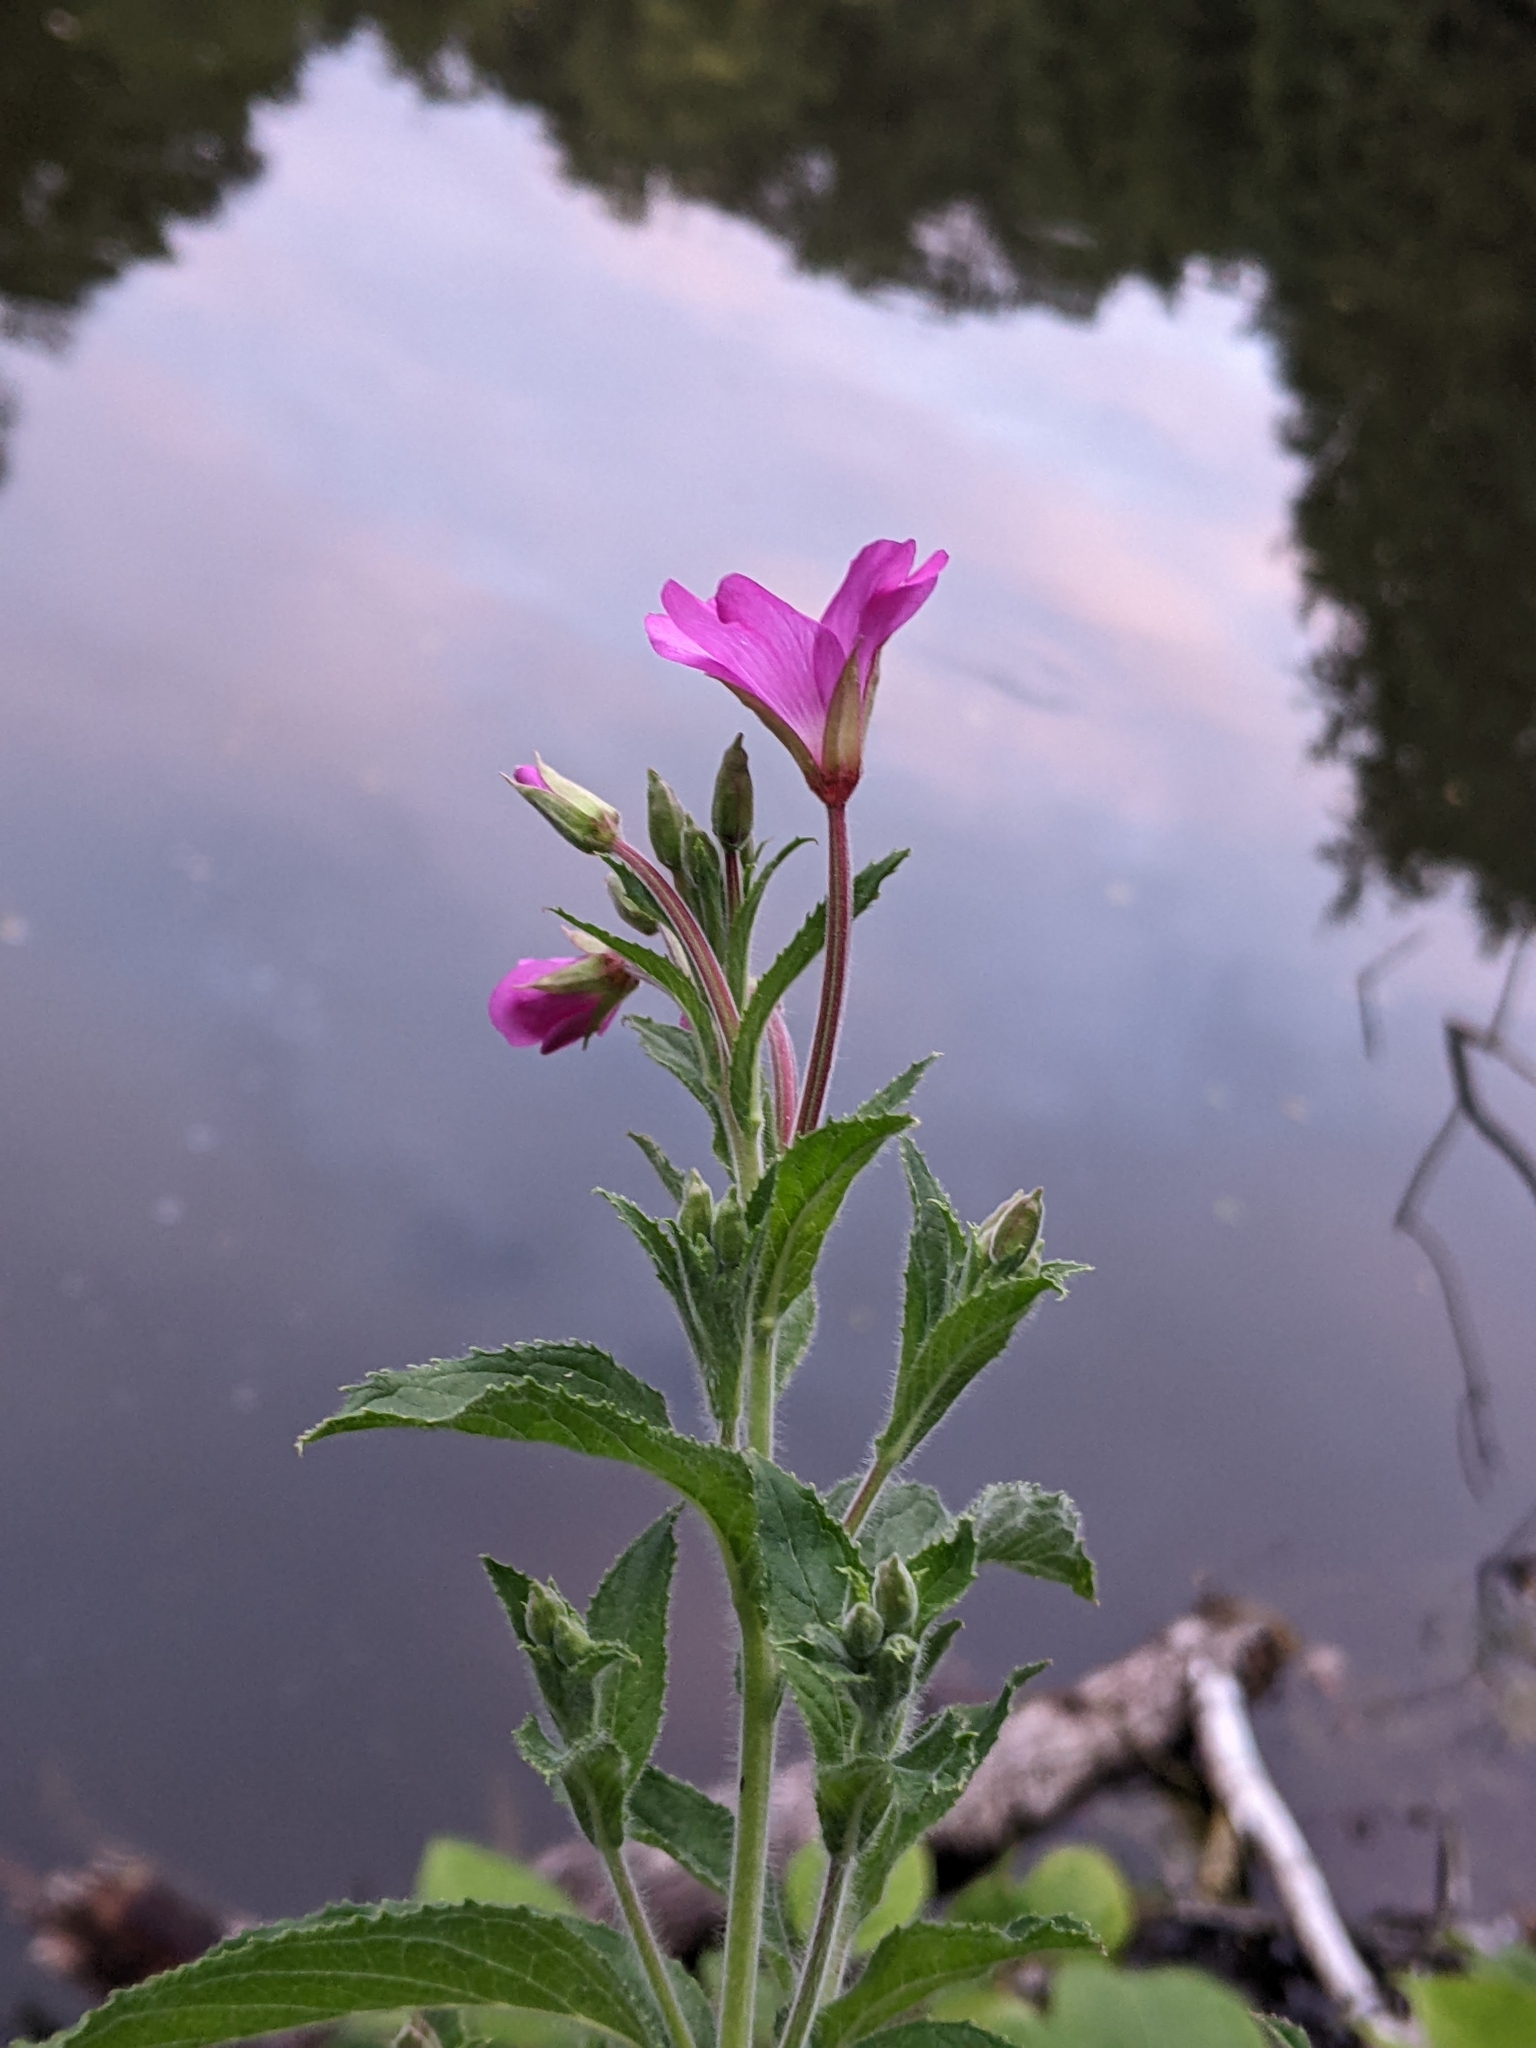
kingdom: Plantae
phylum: Tracheophyta
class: Magnoliopsida
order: Myrtales
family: Onagraceae
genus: Epilobium
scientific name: Epilobium hirsutum
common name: Great willowherb
